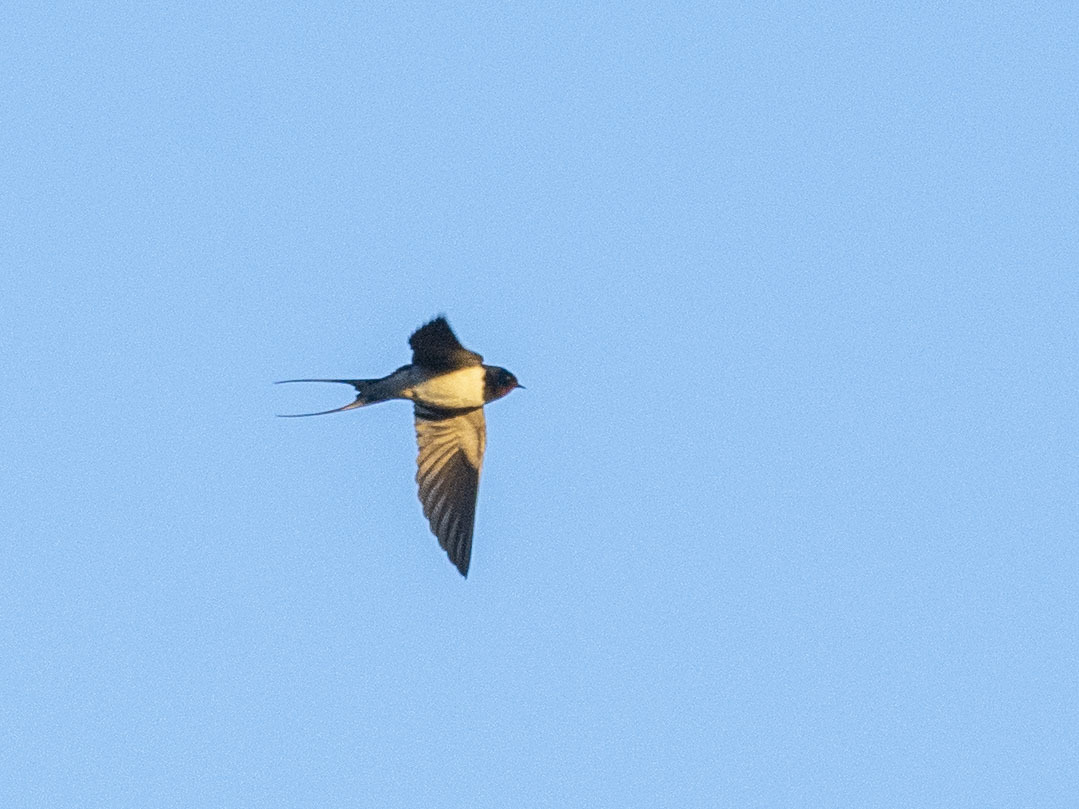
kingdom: Animalia
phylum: Chordata
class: Aves
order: Passeriformes
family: Hirundinidae
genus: Hirundo
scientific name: Hirundo rustica
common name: Barn swallow
